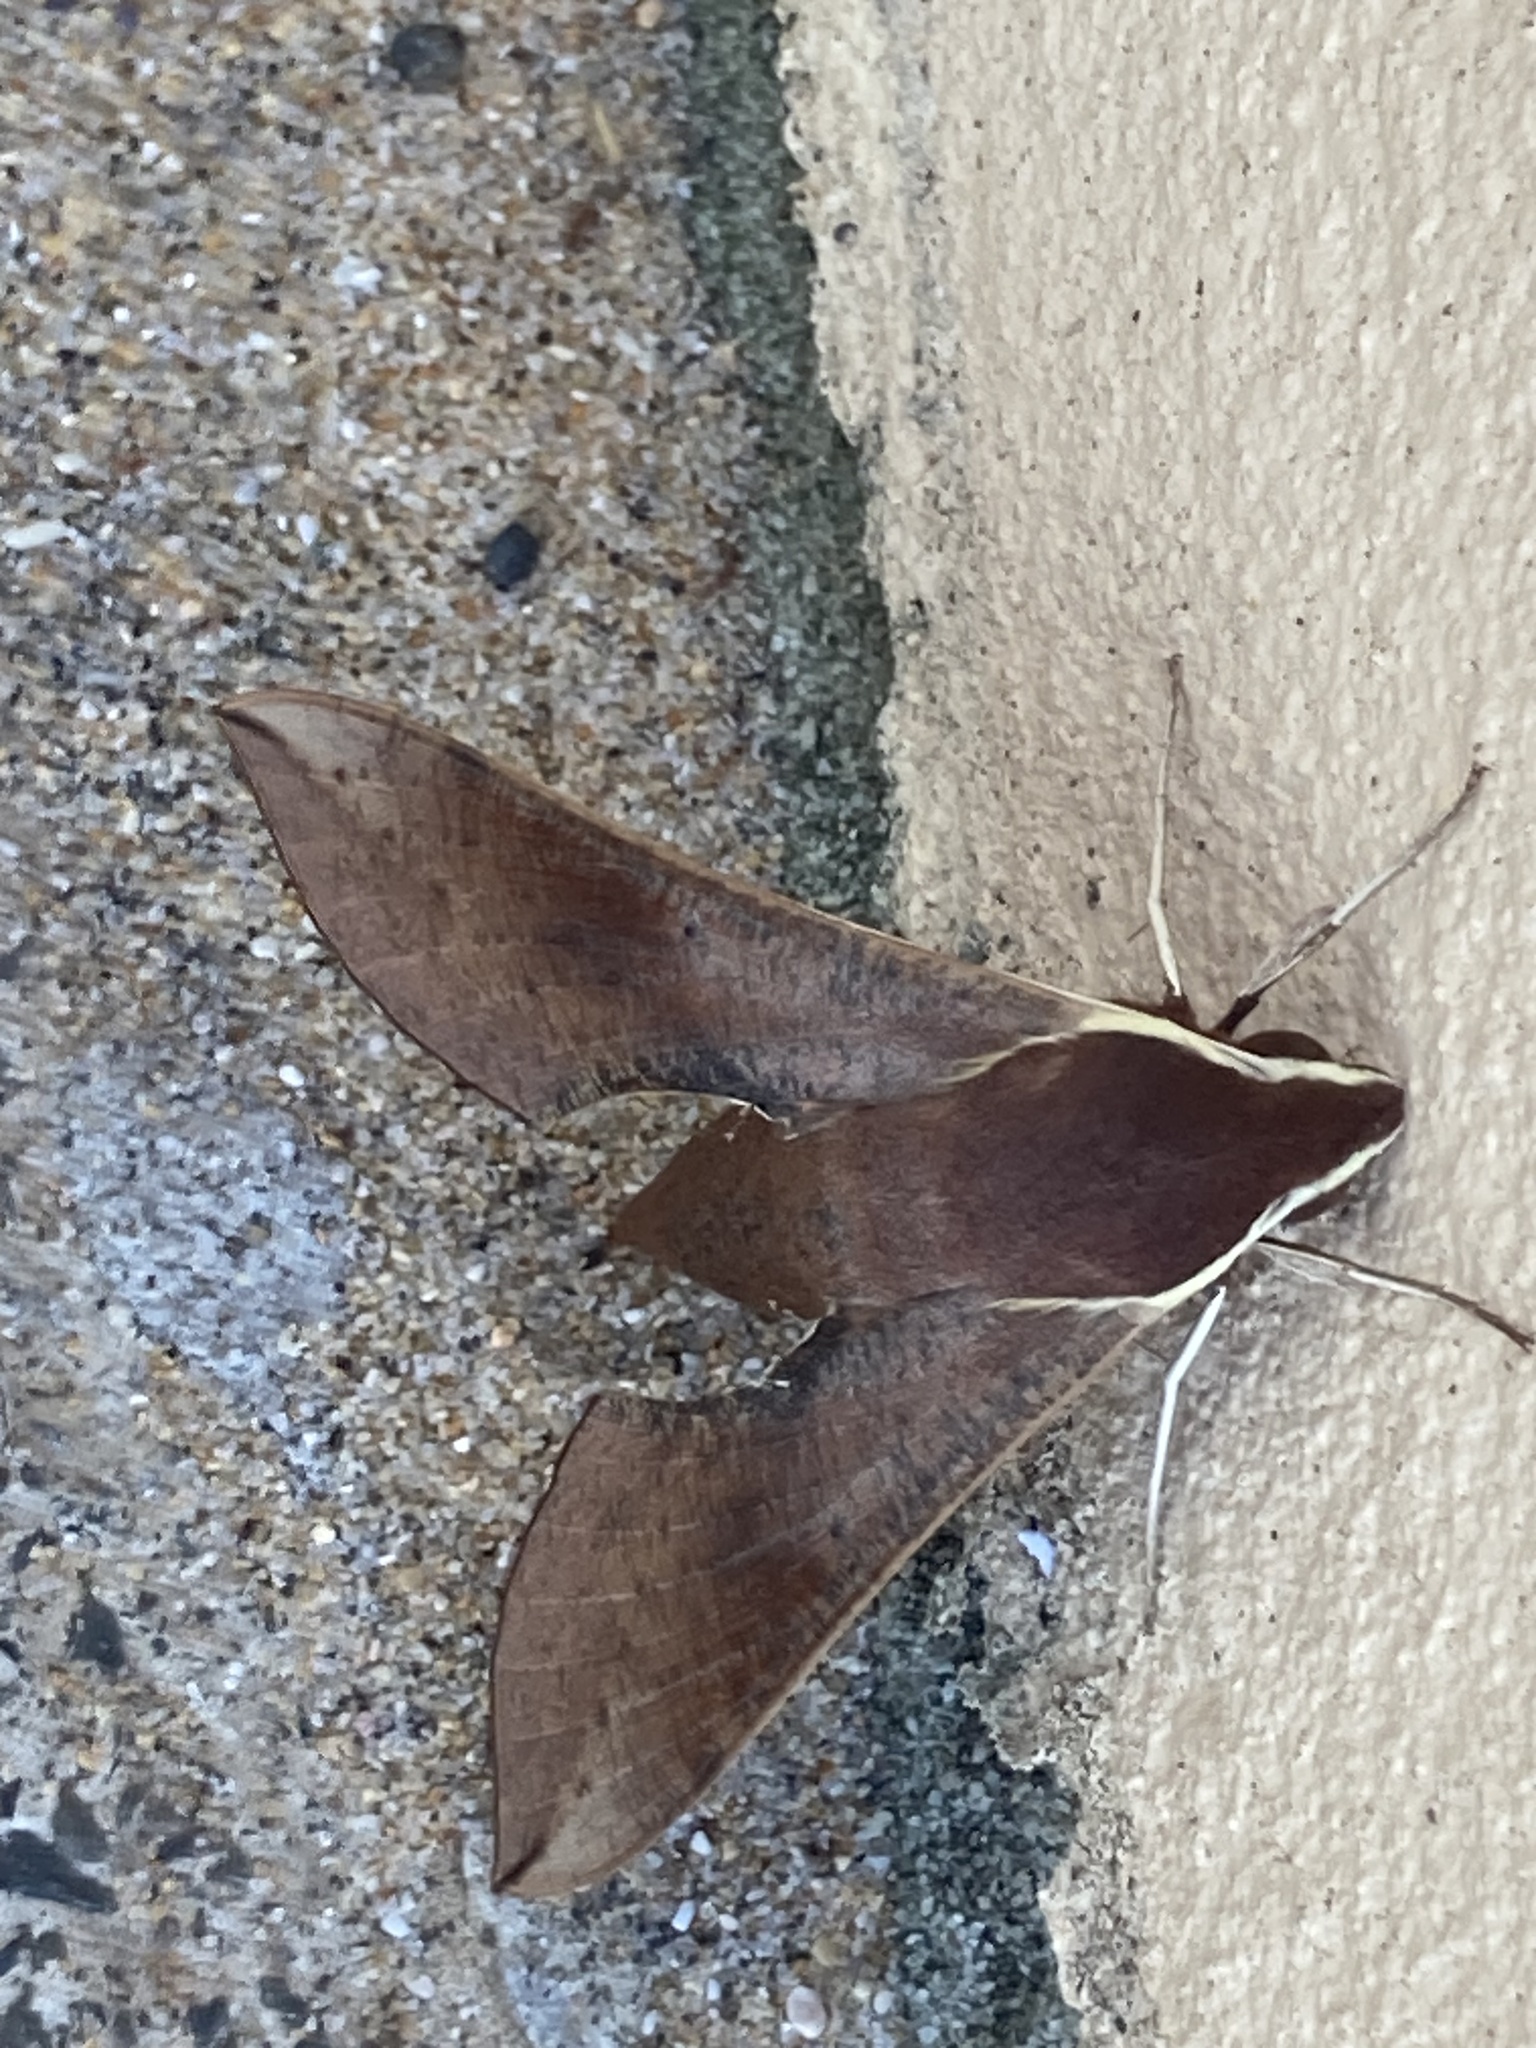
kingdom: Animalia
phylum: Arthropoda
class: Insecta
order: Lepidoptera
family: Sphingidae
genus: Hippotion
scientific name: Hippotion scrofa
